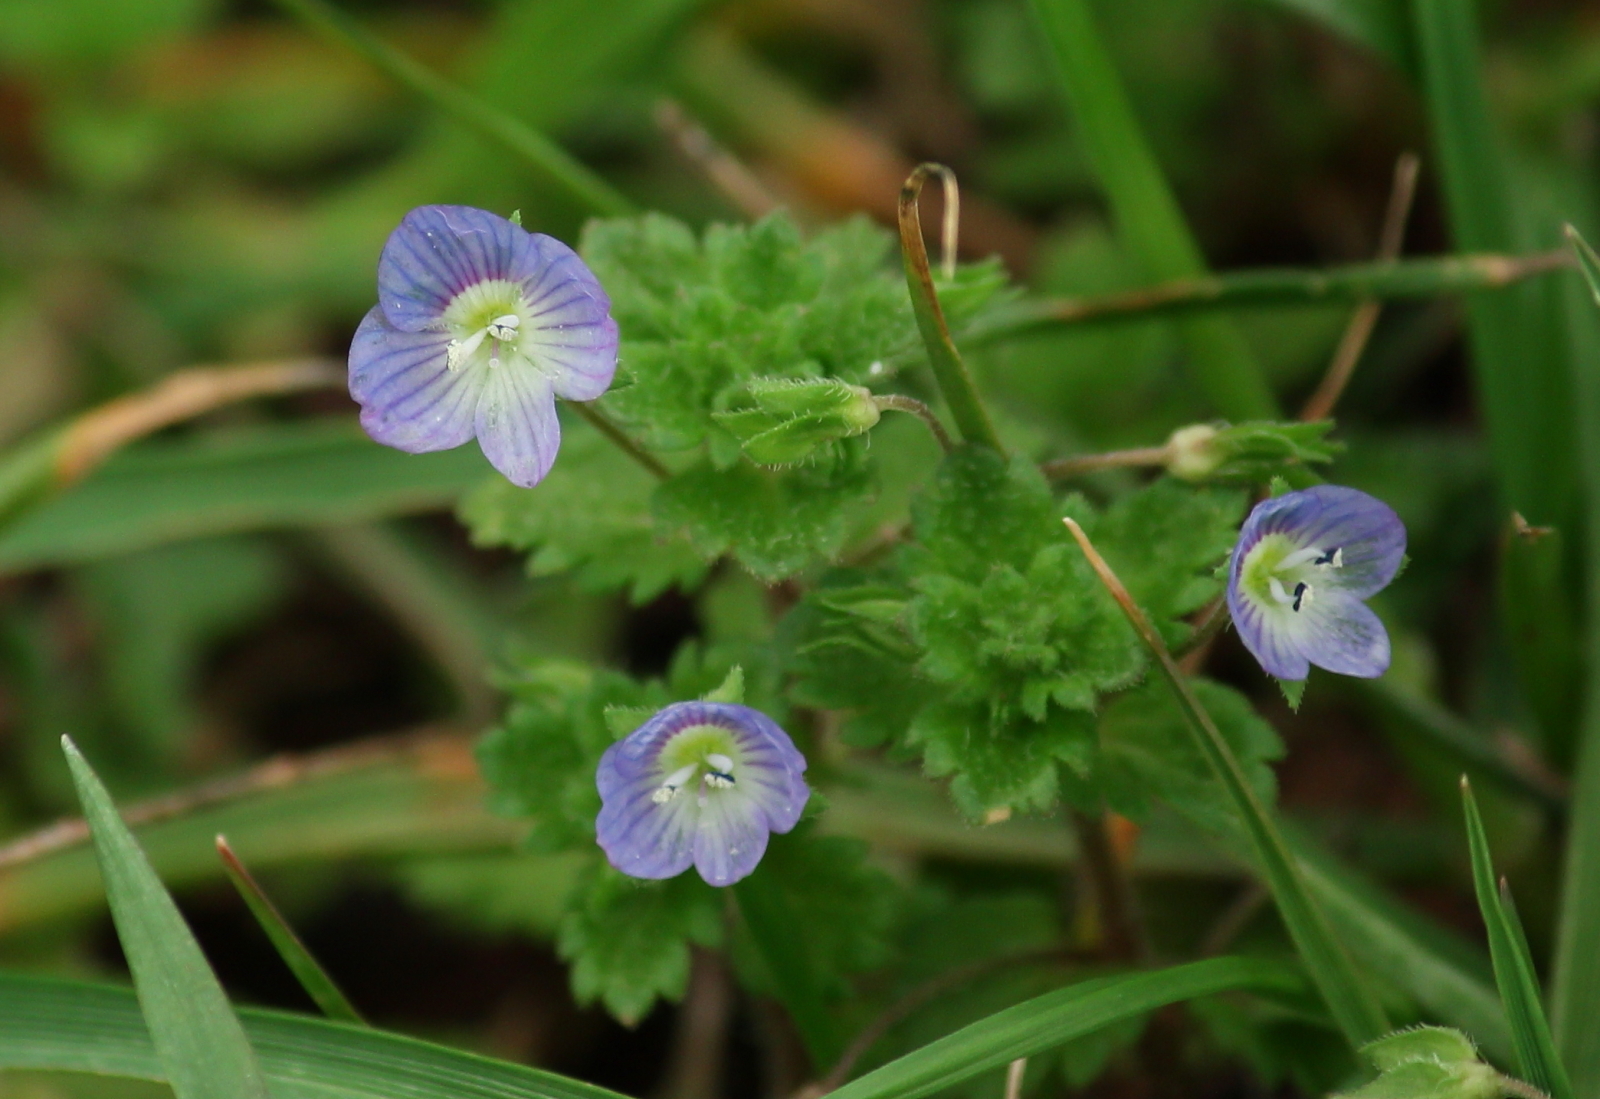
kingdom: Plantae
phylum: Tracheophyta
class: Magnoliopsida
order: Lamiales
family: Plantaginaceae
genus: Veronica
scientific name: Veronica persica
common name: Common field-speedwell
